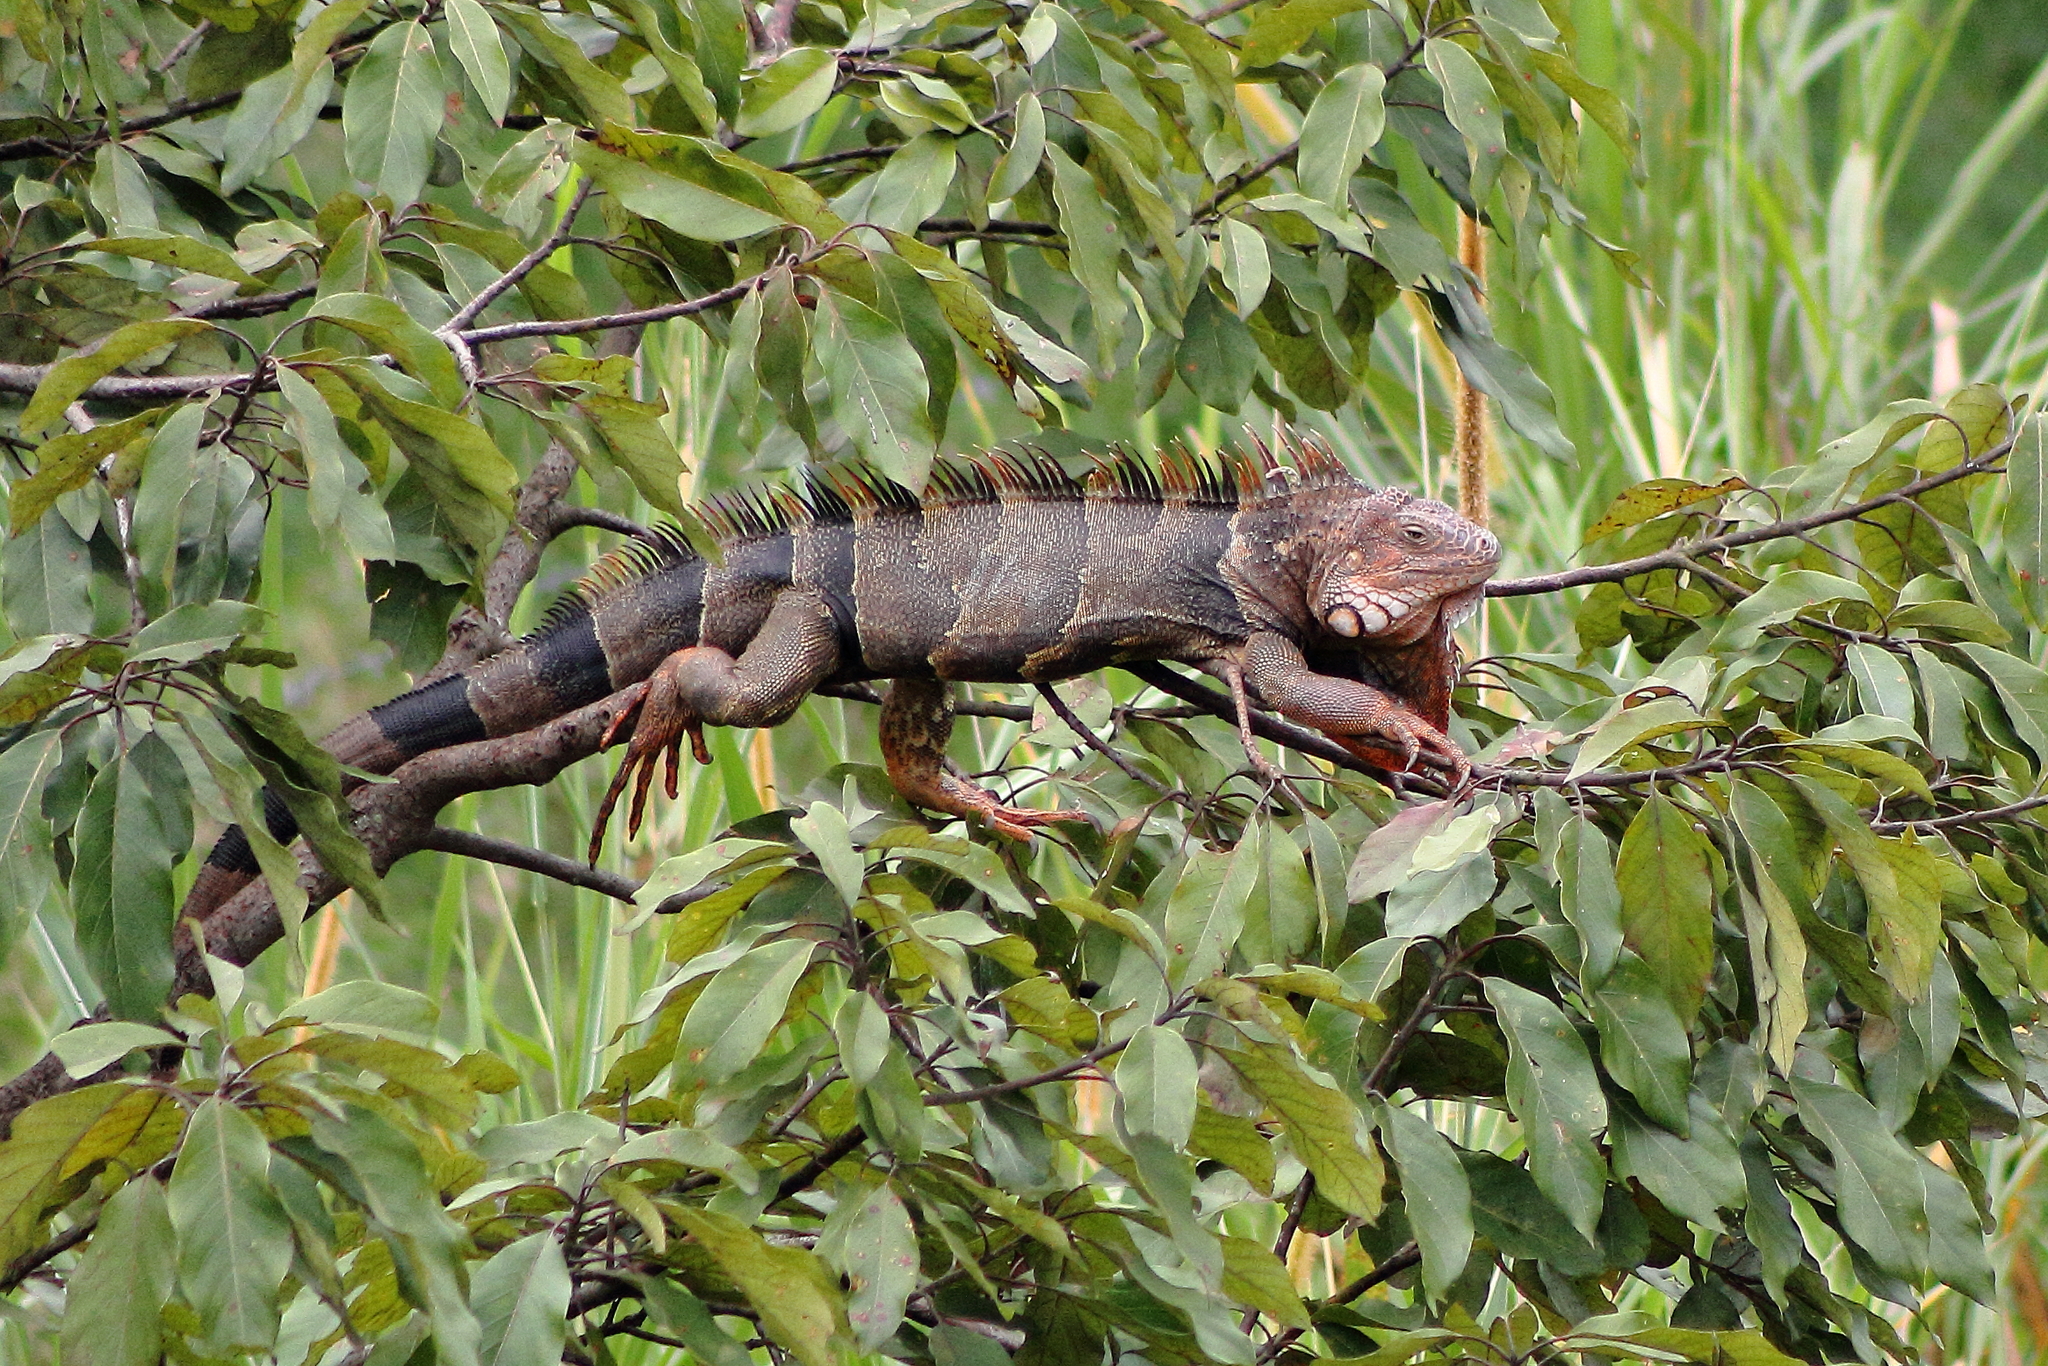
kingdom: Animalia
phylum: Chordata
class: Squamata
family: Iguanidae
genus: Iguana
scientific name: Iguana iguana
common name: Green iguana
